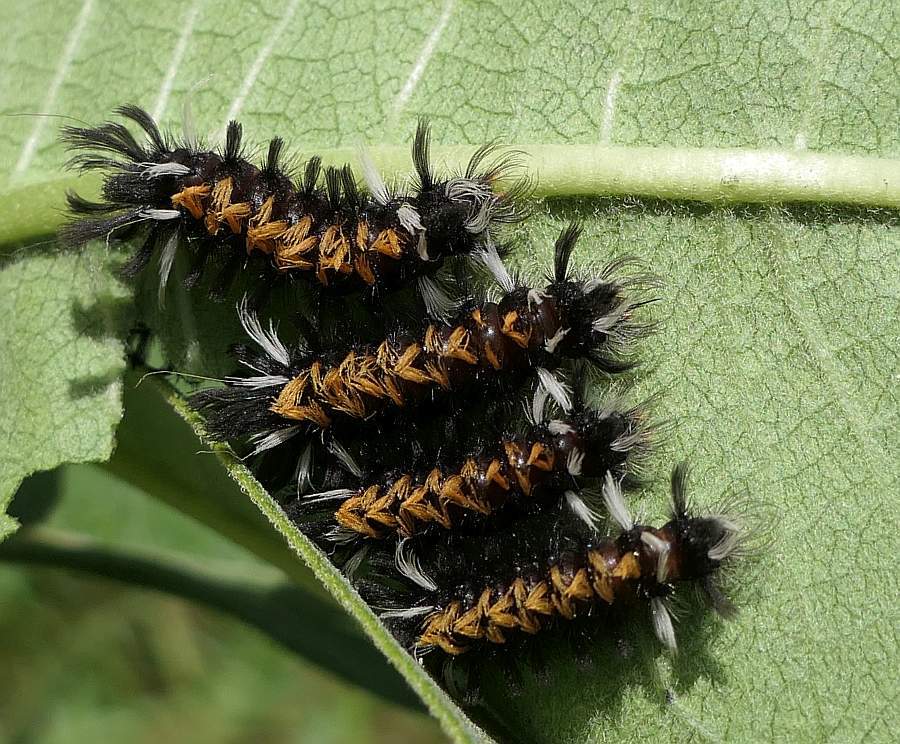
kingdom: Animalia
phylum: Arthropoda
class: Insecta
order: Lepidoptera
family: Erebidae
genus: Euchaetes
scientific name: Euchaetes egle
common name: Milkweed tussock moth
